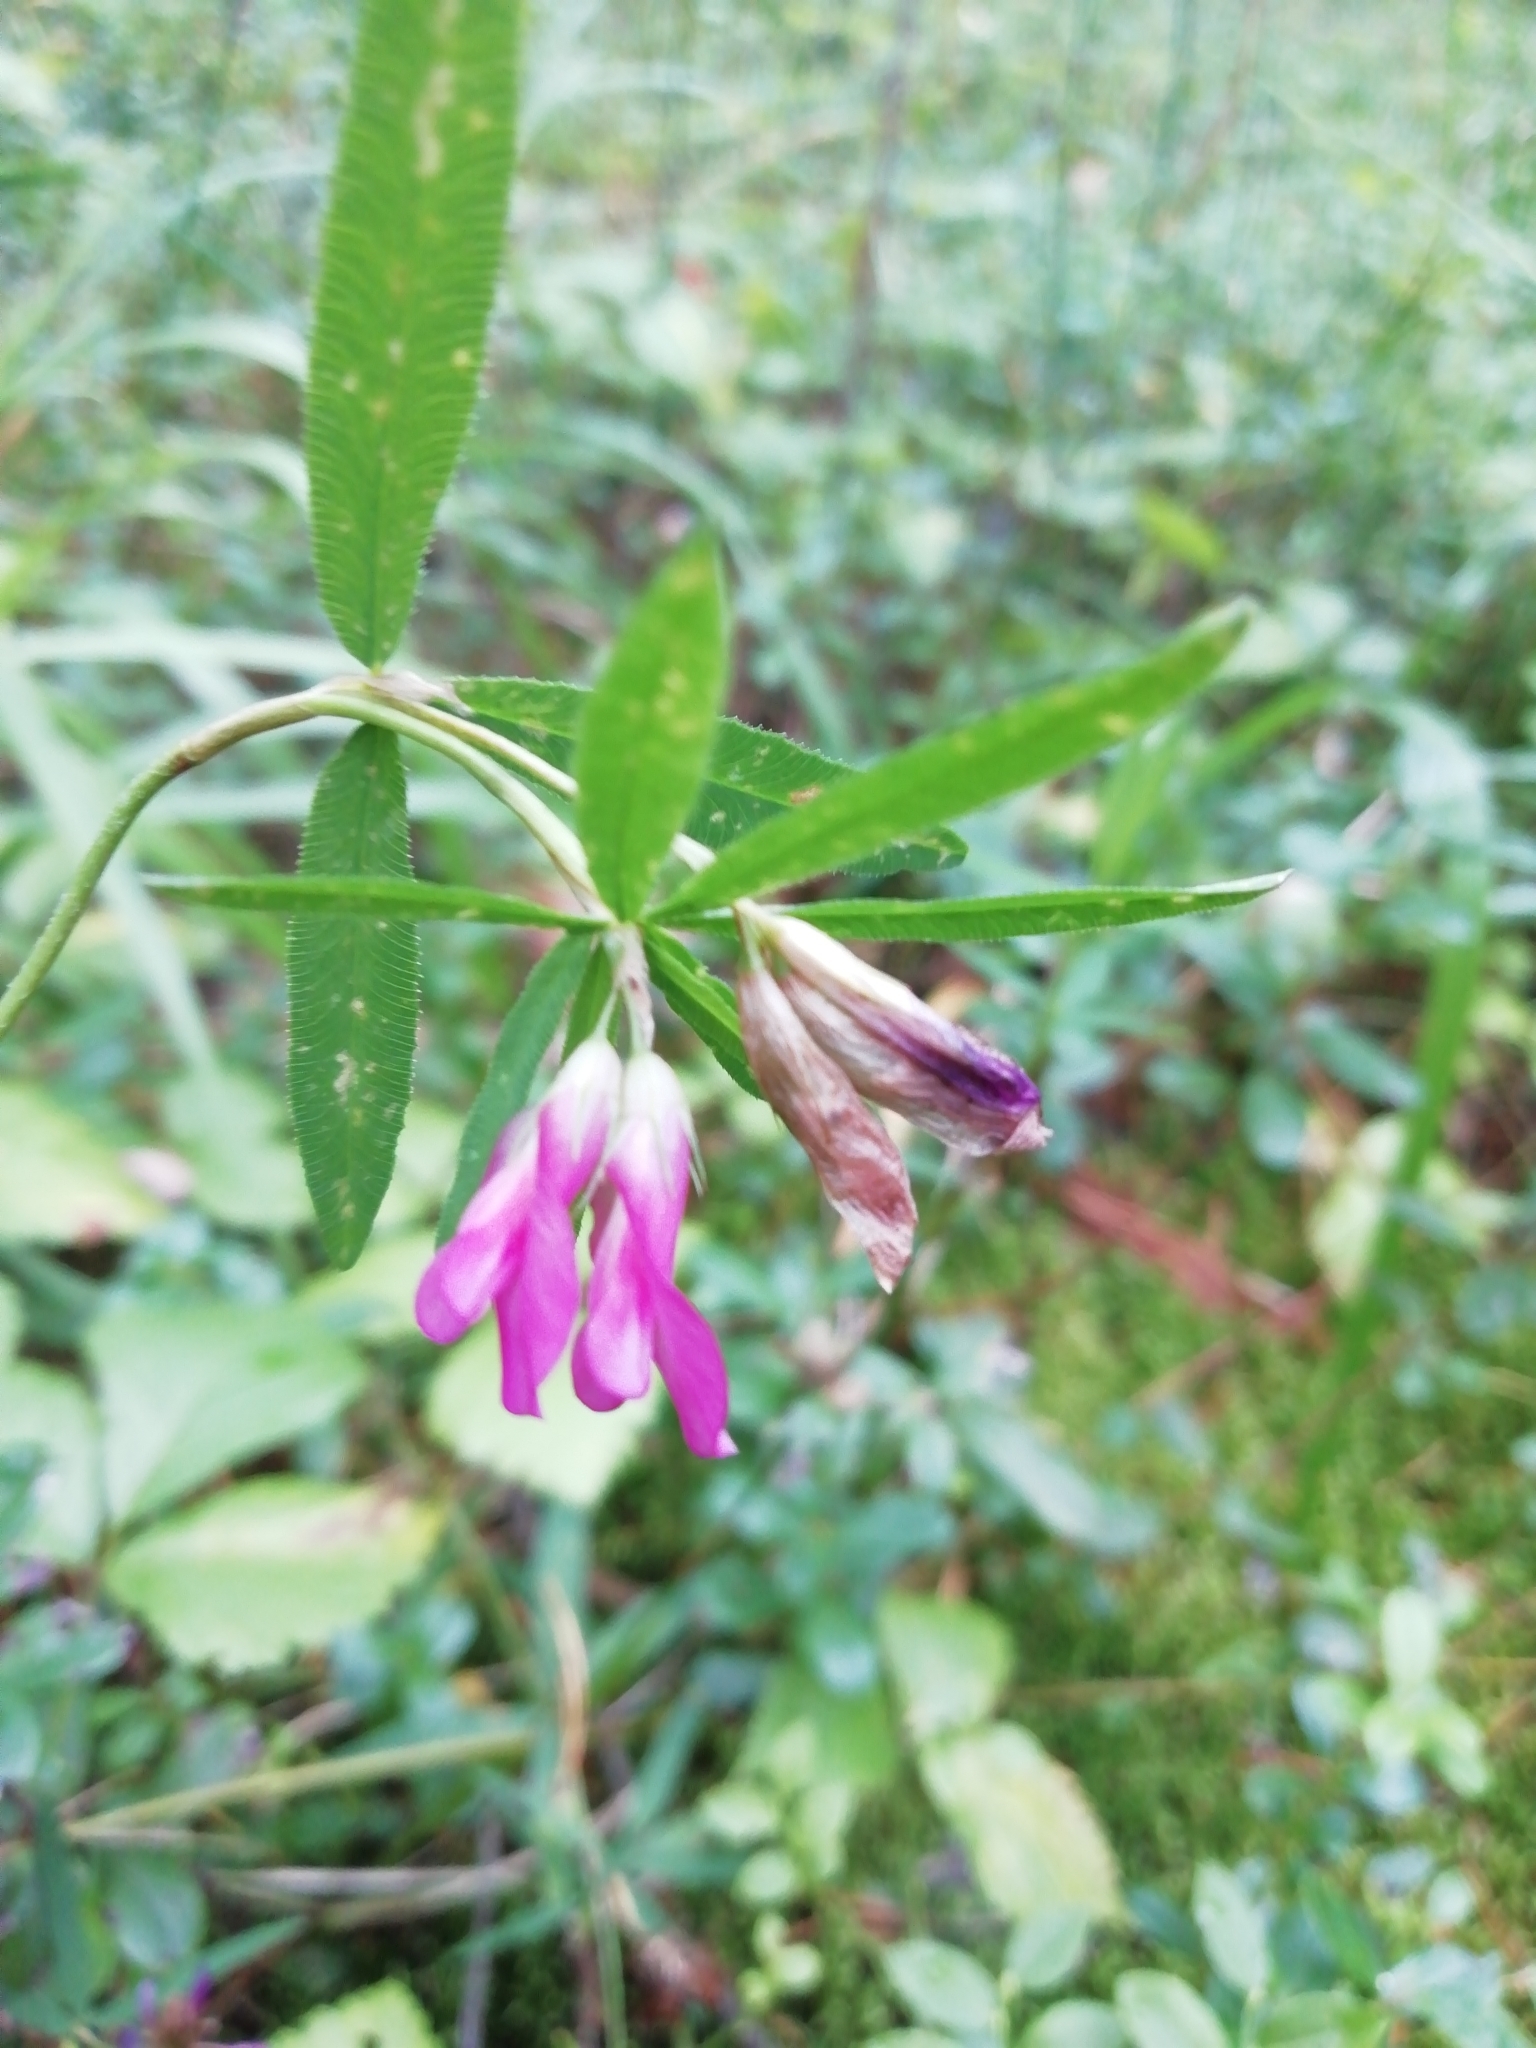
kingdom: Plantae
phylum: Tracheophyta
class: Magnoliopsida
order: Fabales
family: Fabaceae
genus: Trifolium
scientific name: Trifolium lupinaster
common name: Lupine clover
